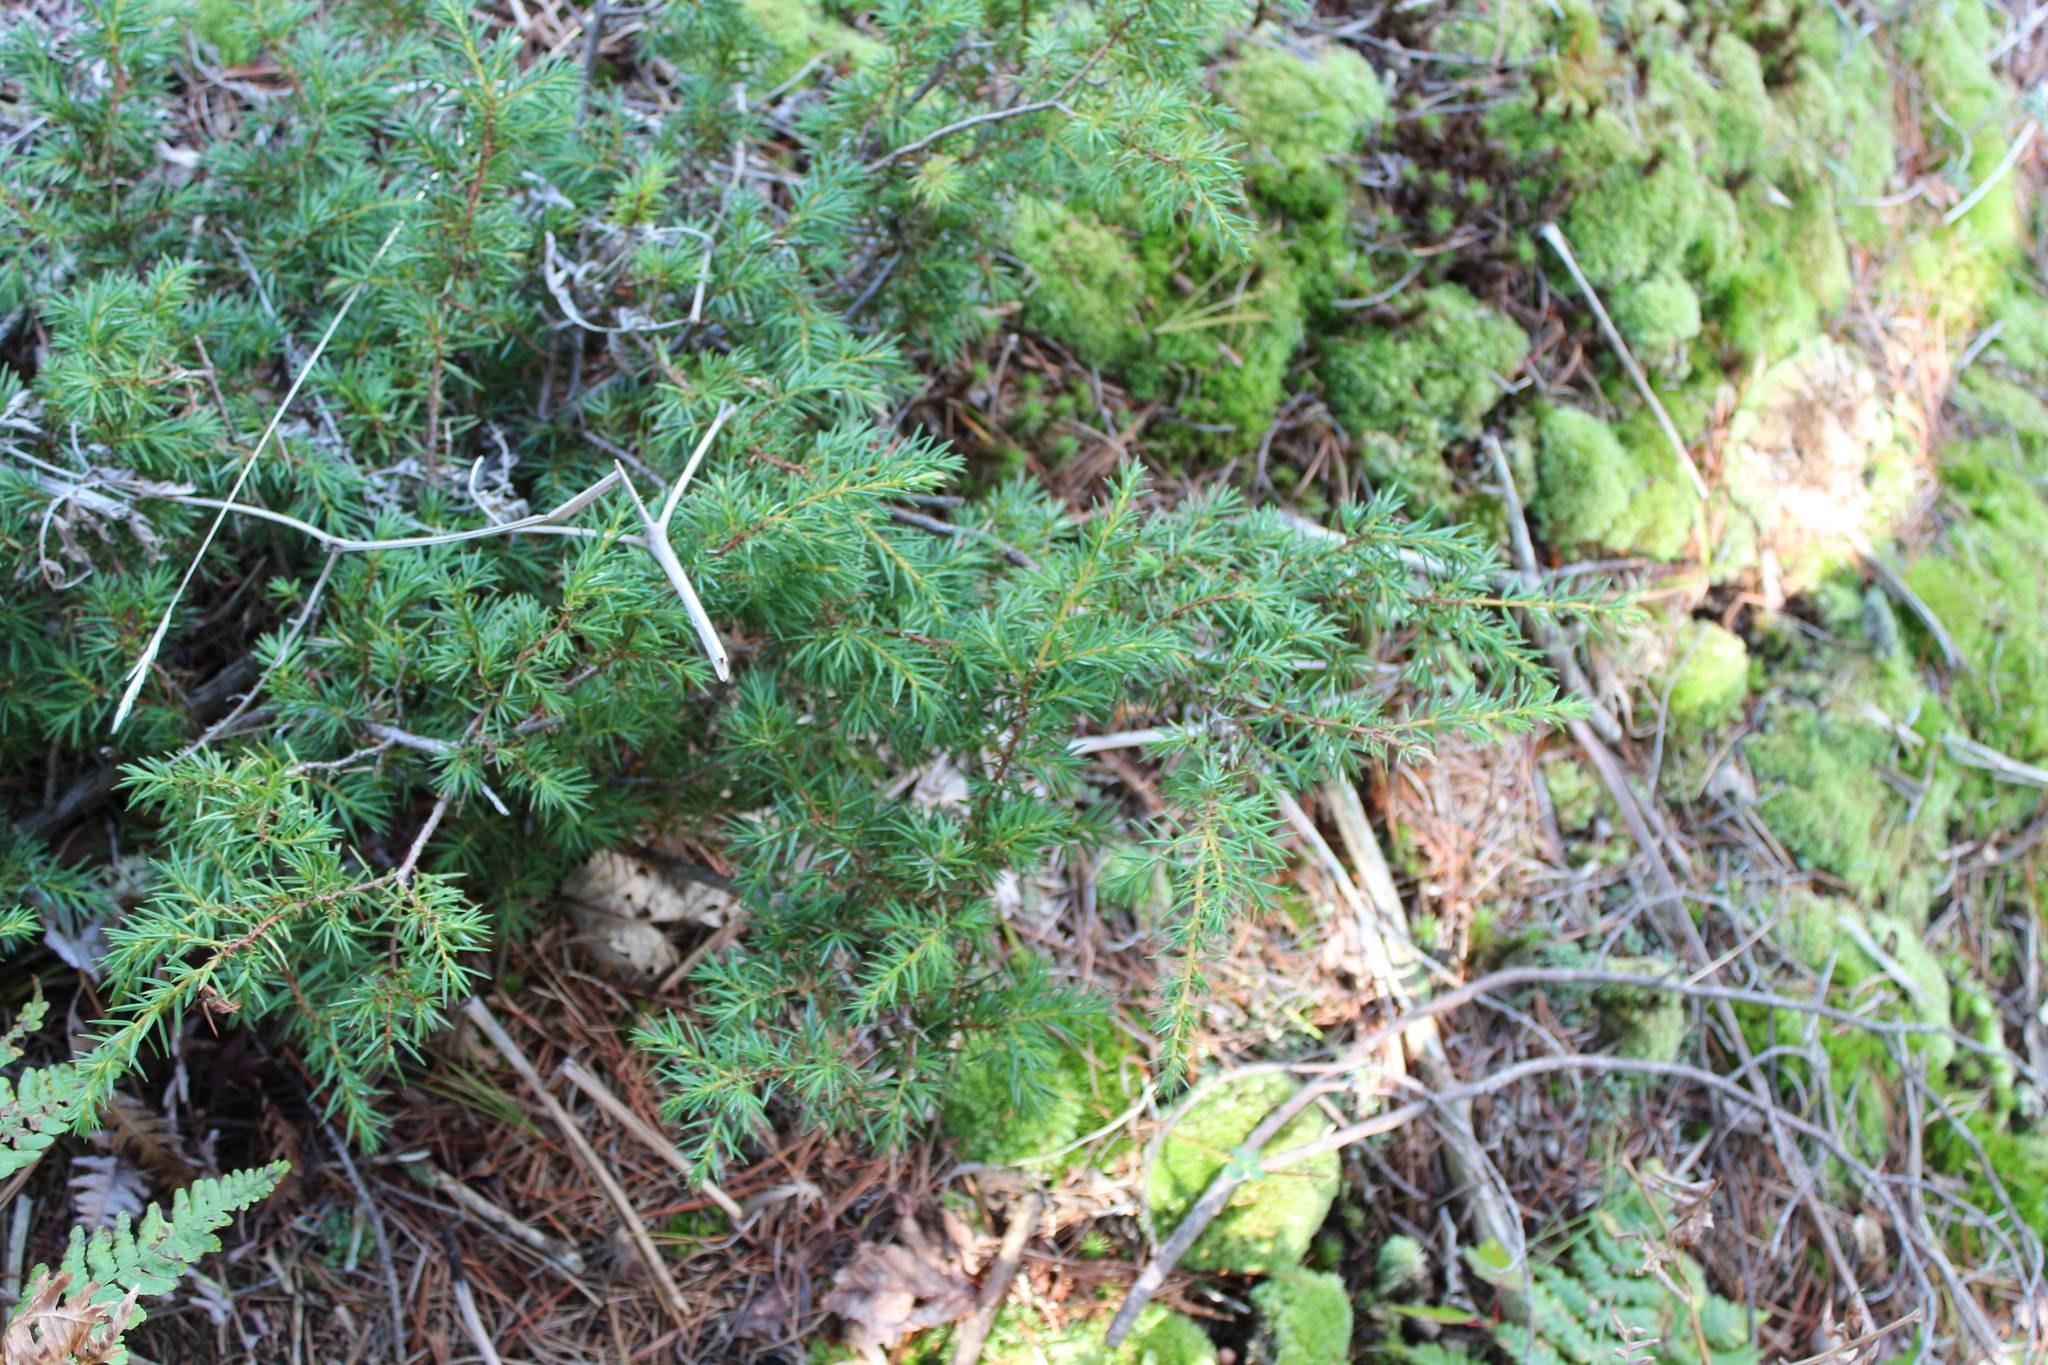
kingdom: Plantae
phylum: Tracheophyta
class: Pinopsida
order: Pinales
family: Cupressaceae
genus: Juniperus
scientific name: Juniperus communis
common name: Common juniper
